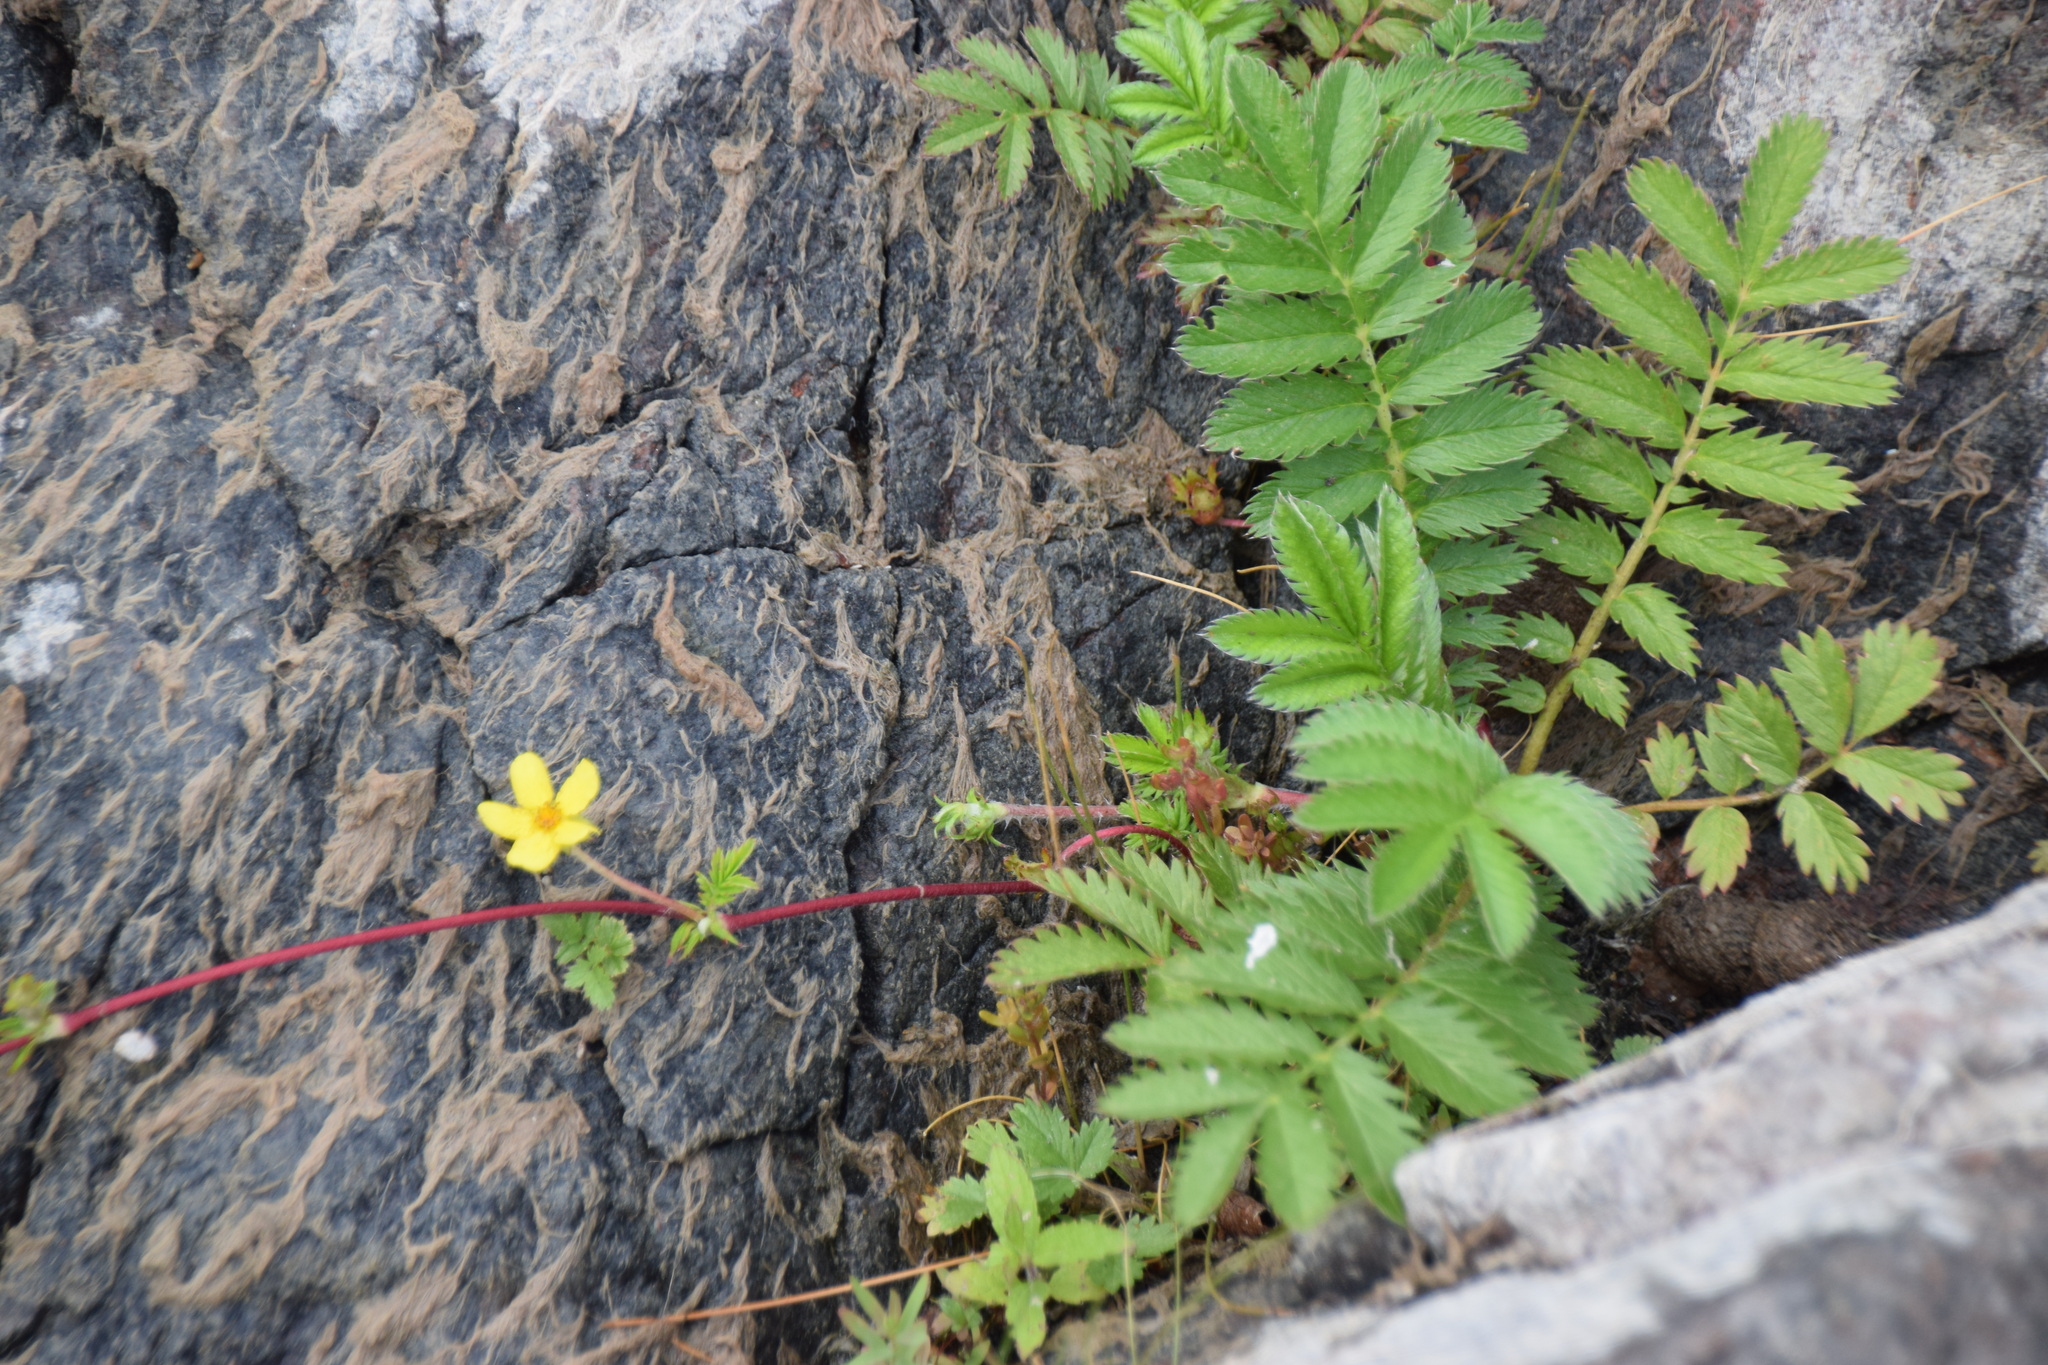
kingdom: Plantae
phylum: Tracheophyta
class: Magnoliopsida
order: Rosales
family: Rosaceae
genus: Argentina
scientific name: Argentina anserina
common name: Common silverweed
